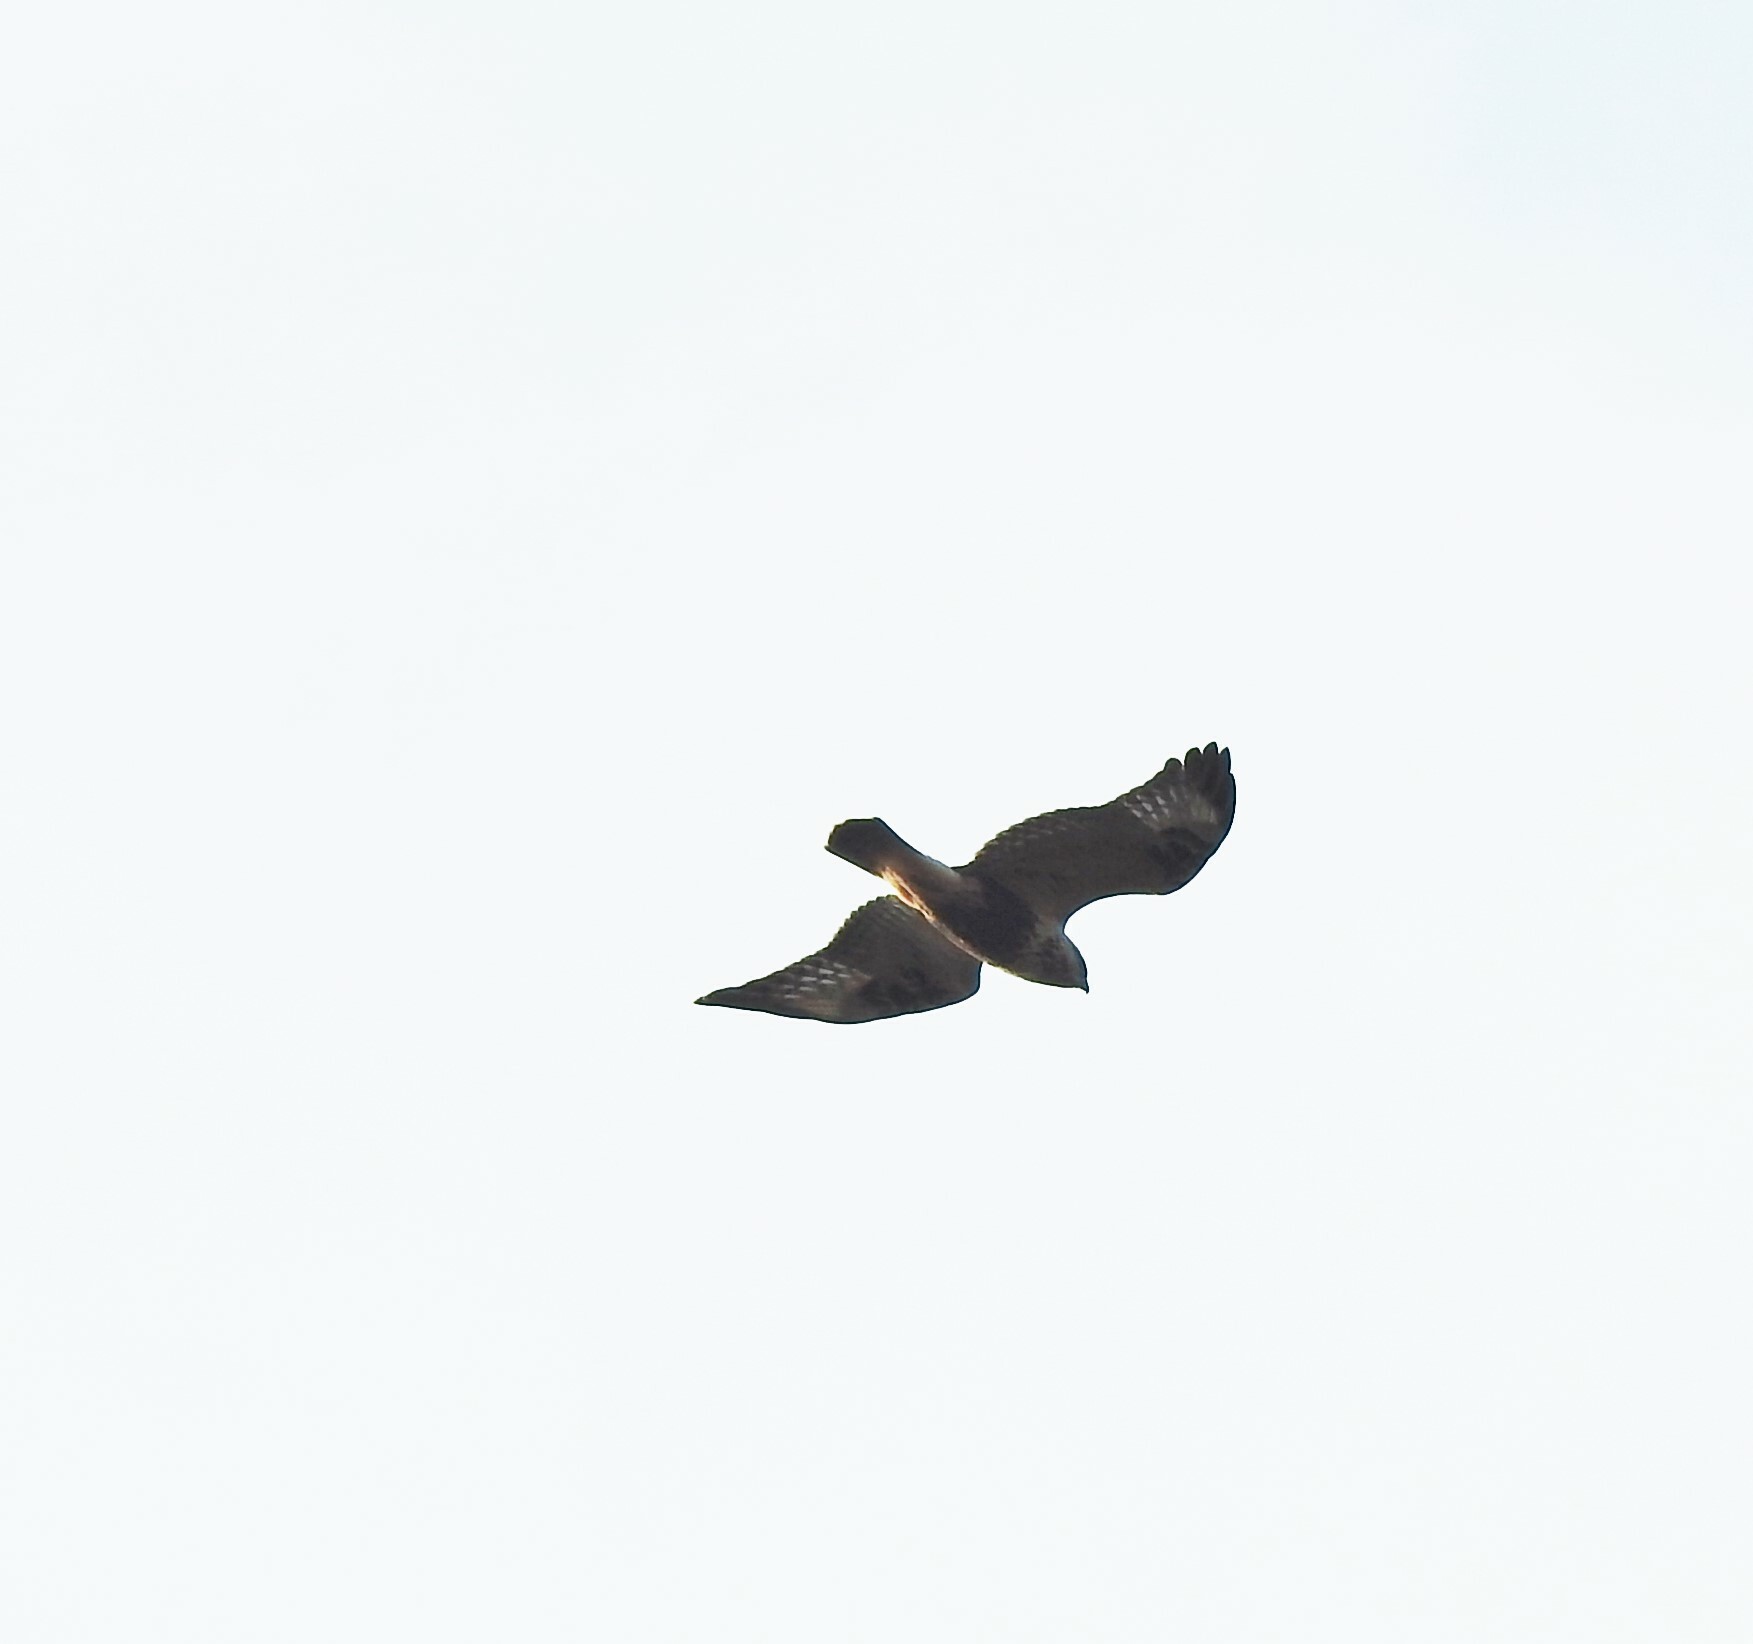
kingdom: Animalia
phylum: Chordata
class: Aves
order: Accipitriformes
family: Accipitridae
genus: Buteo
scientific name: Buteo lagopus
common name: Rough-legged buzzard
